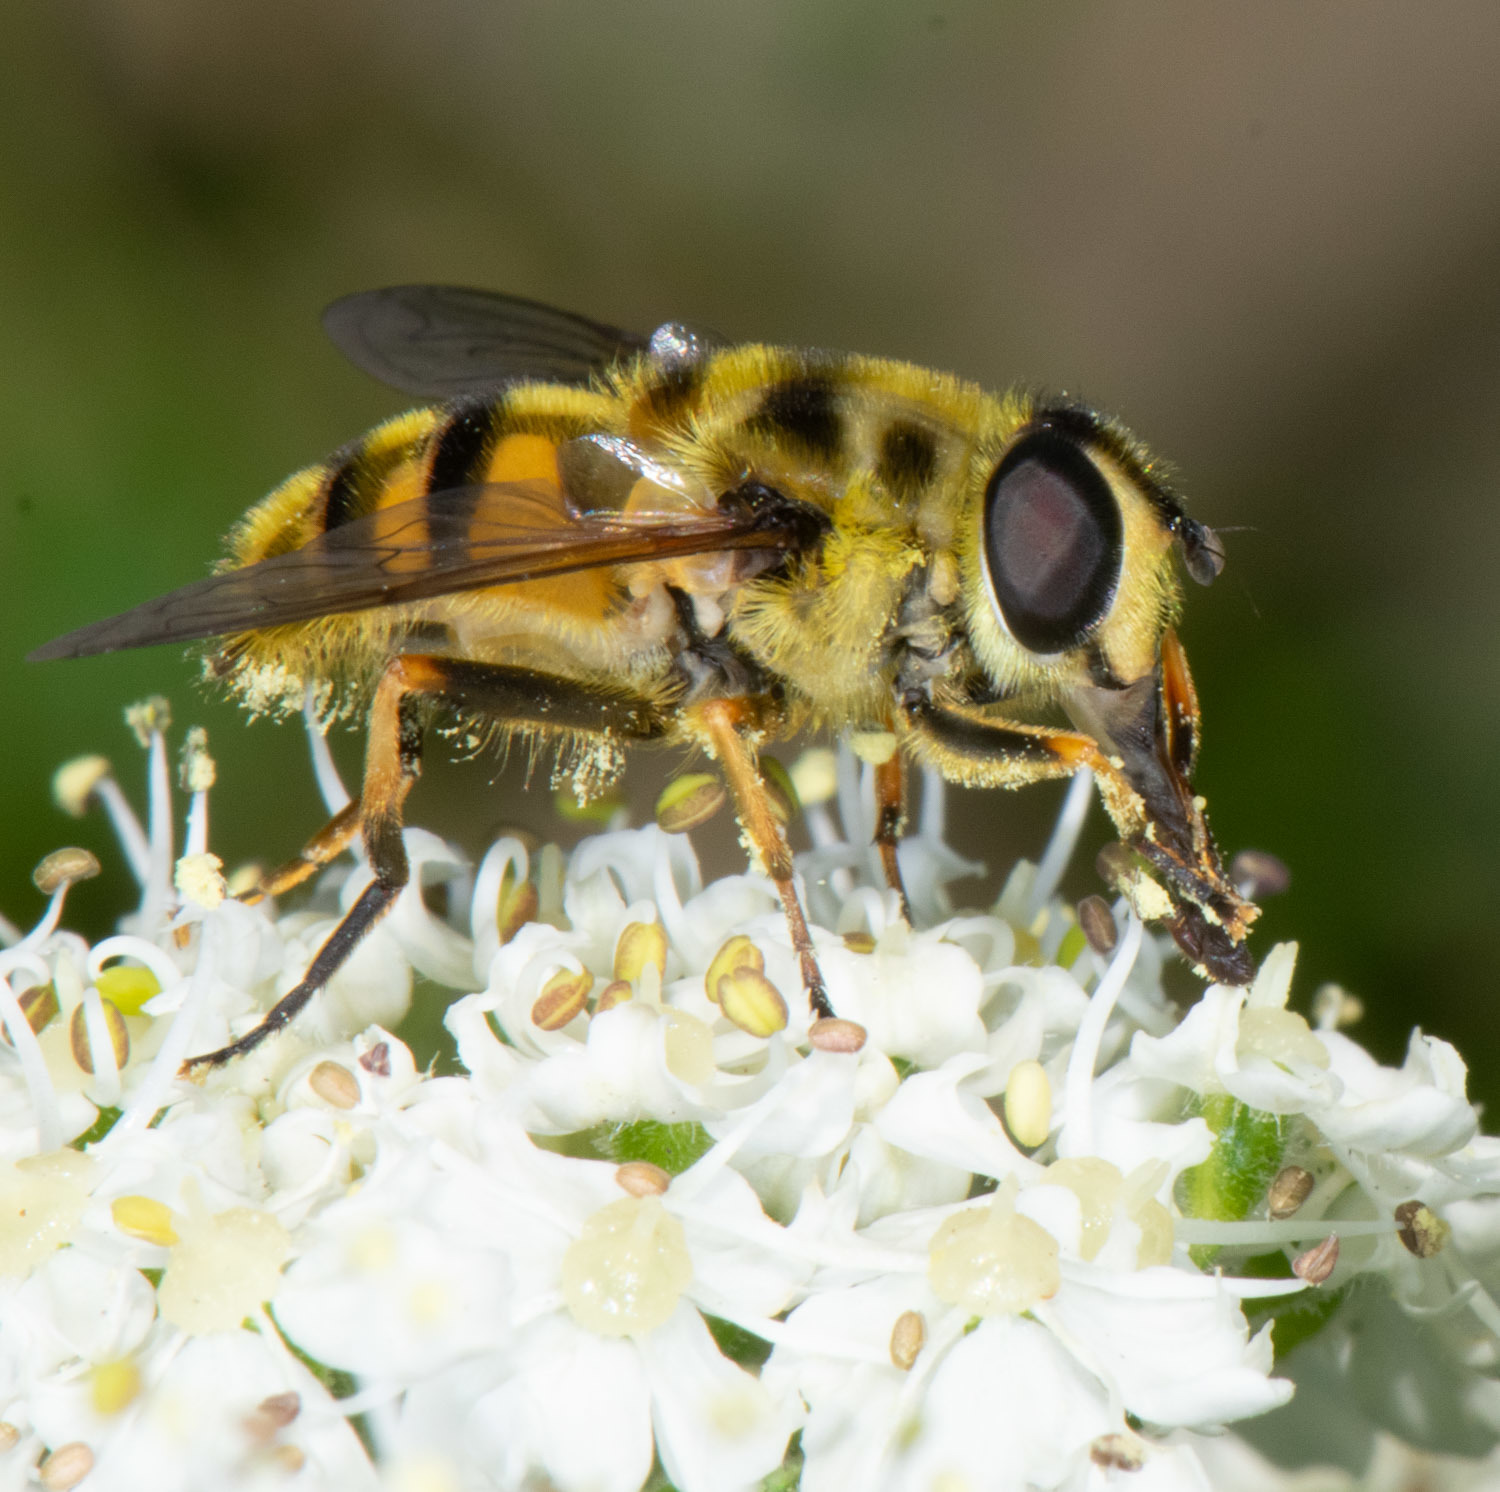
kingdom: Animalia
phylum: Arthropoda
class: Insecta
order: Diptera
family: Syrphidae
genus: Myathropa
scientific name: Myathropa florea
